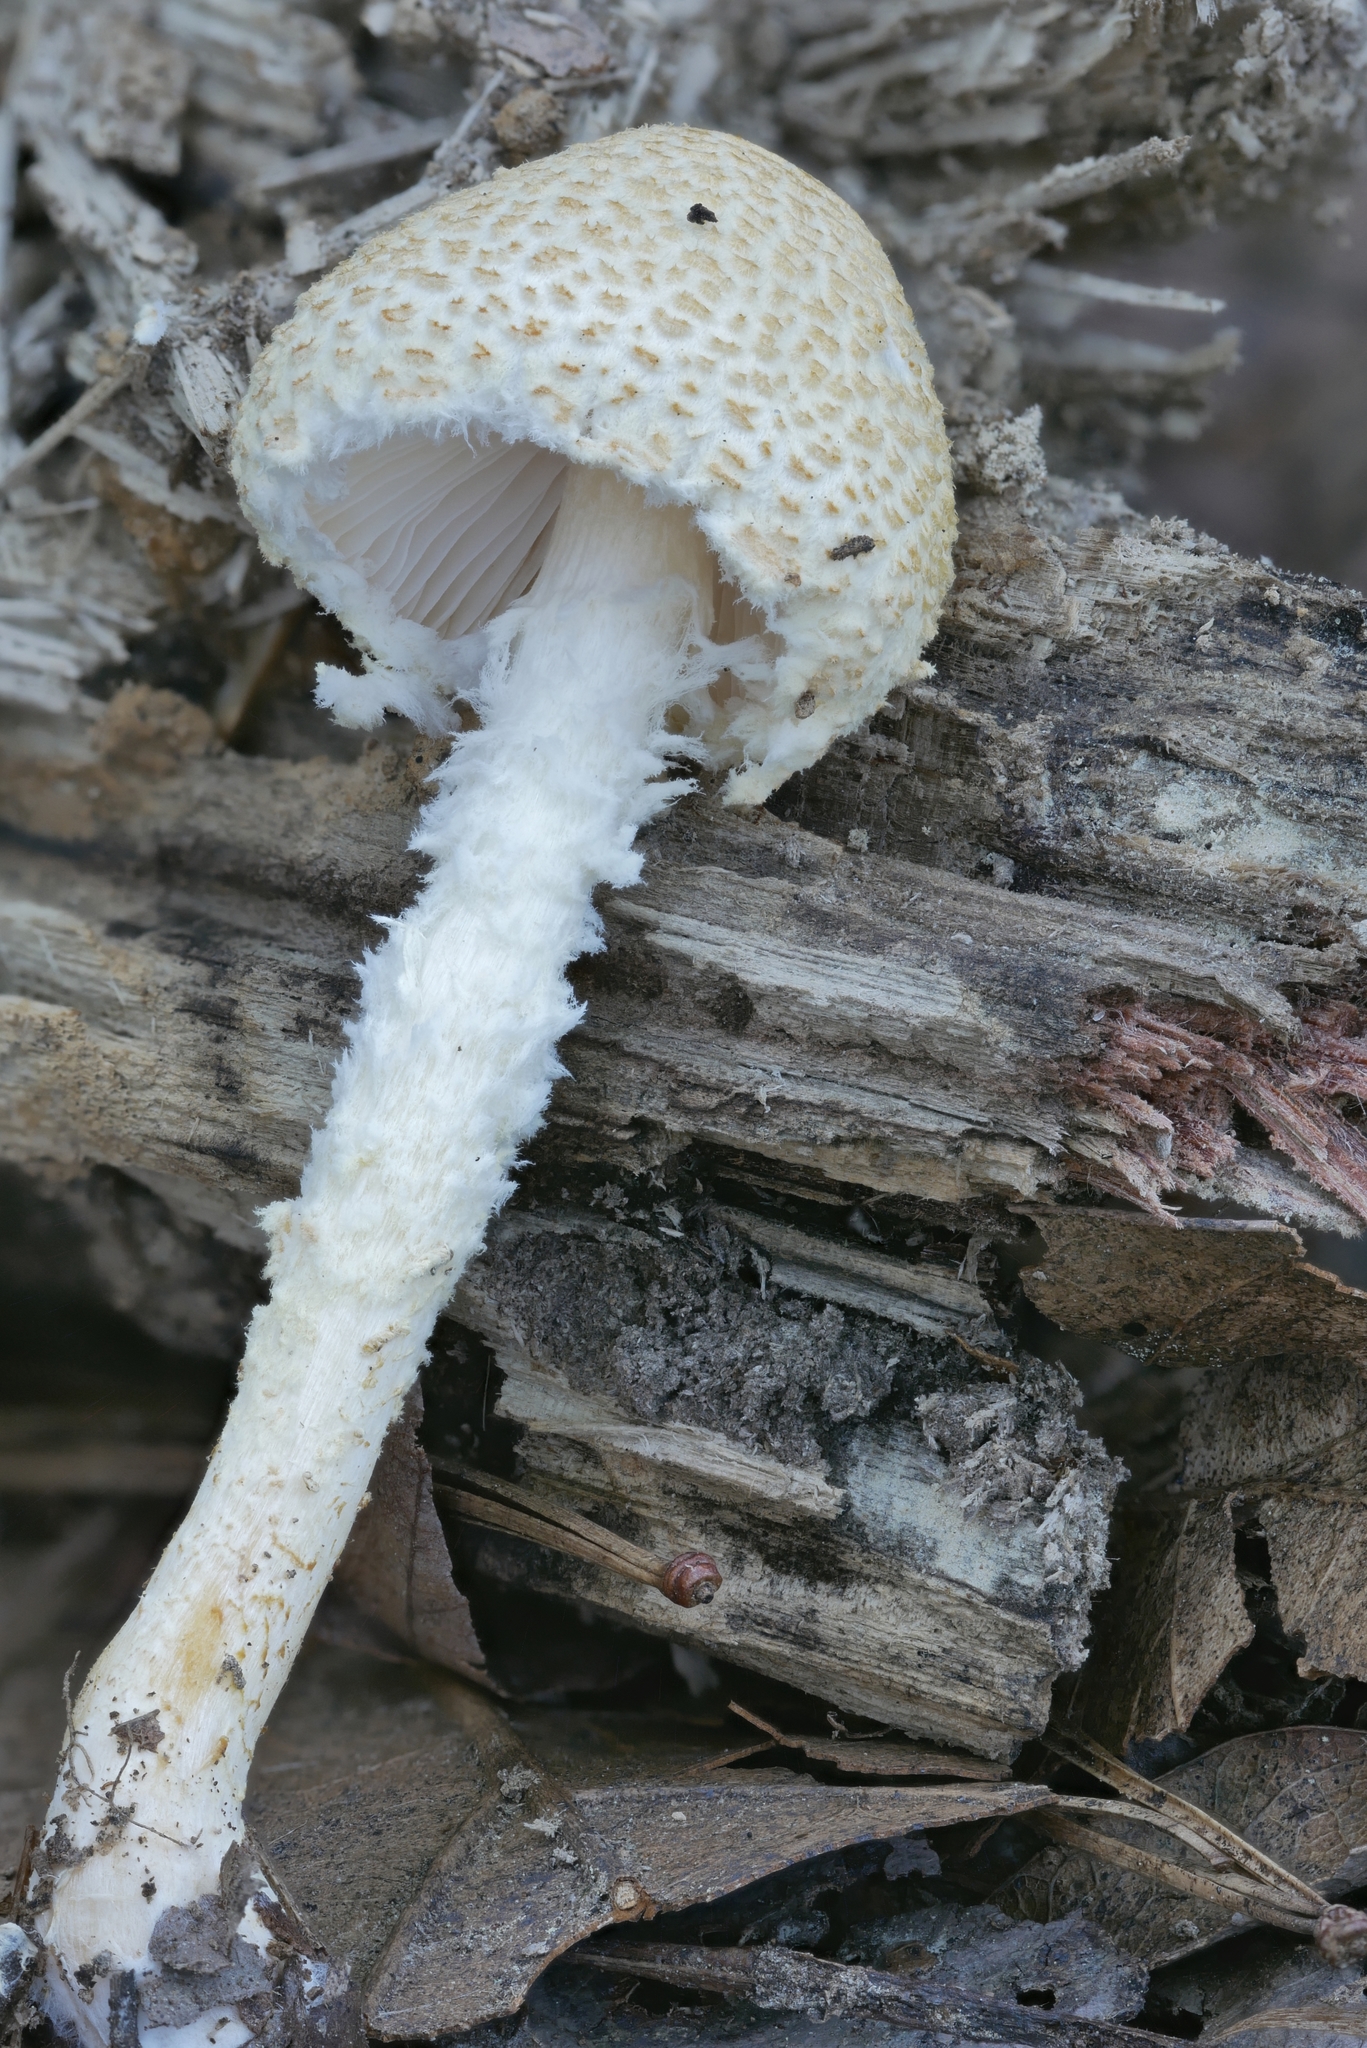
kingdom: Fungi
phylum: Basidiomycota
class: Agaricomycetes
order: Agaricales
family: Agaricaceae
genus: Lepiota
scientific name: Lepiota clypeolaria
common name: Shield dapperling
